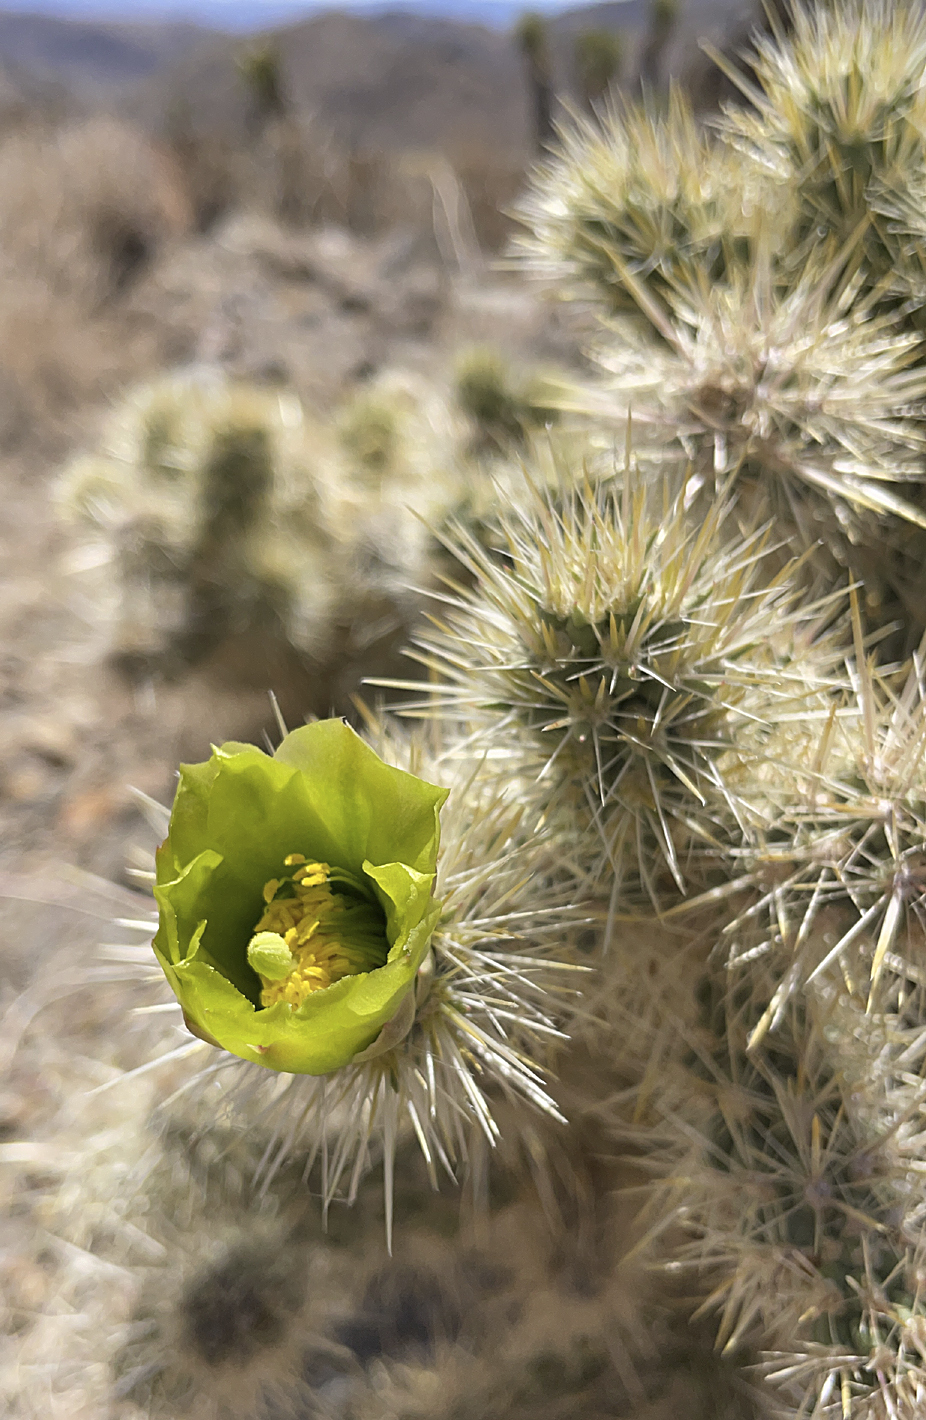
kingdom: Plantae
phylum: Tracheophyta
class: Magnoliopsida
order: Caryophyllales
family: Cactaceae
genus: Cylindropuntia
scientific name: Cylindropuntia echinocarpa
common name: Ground cholla
